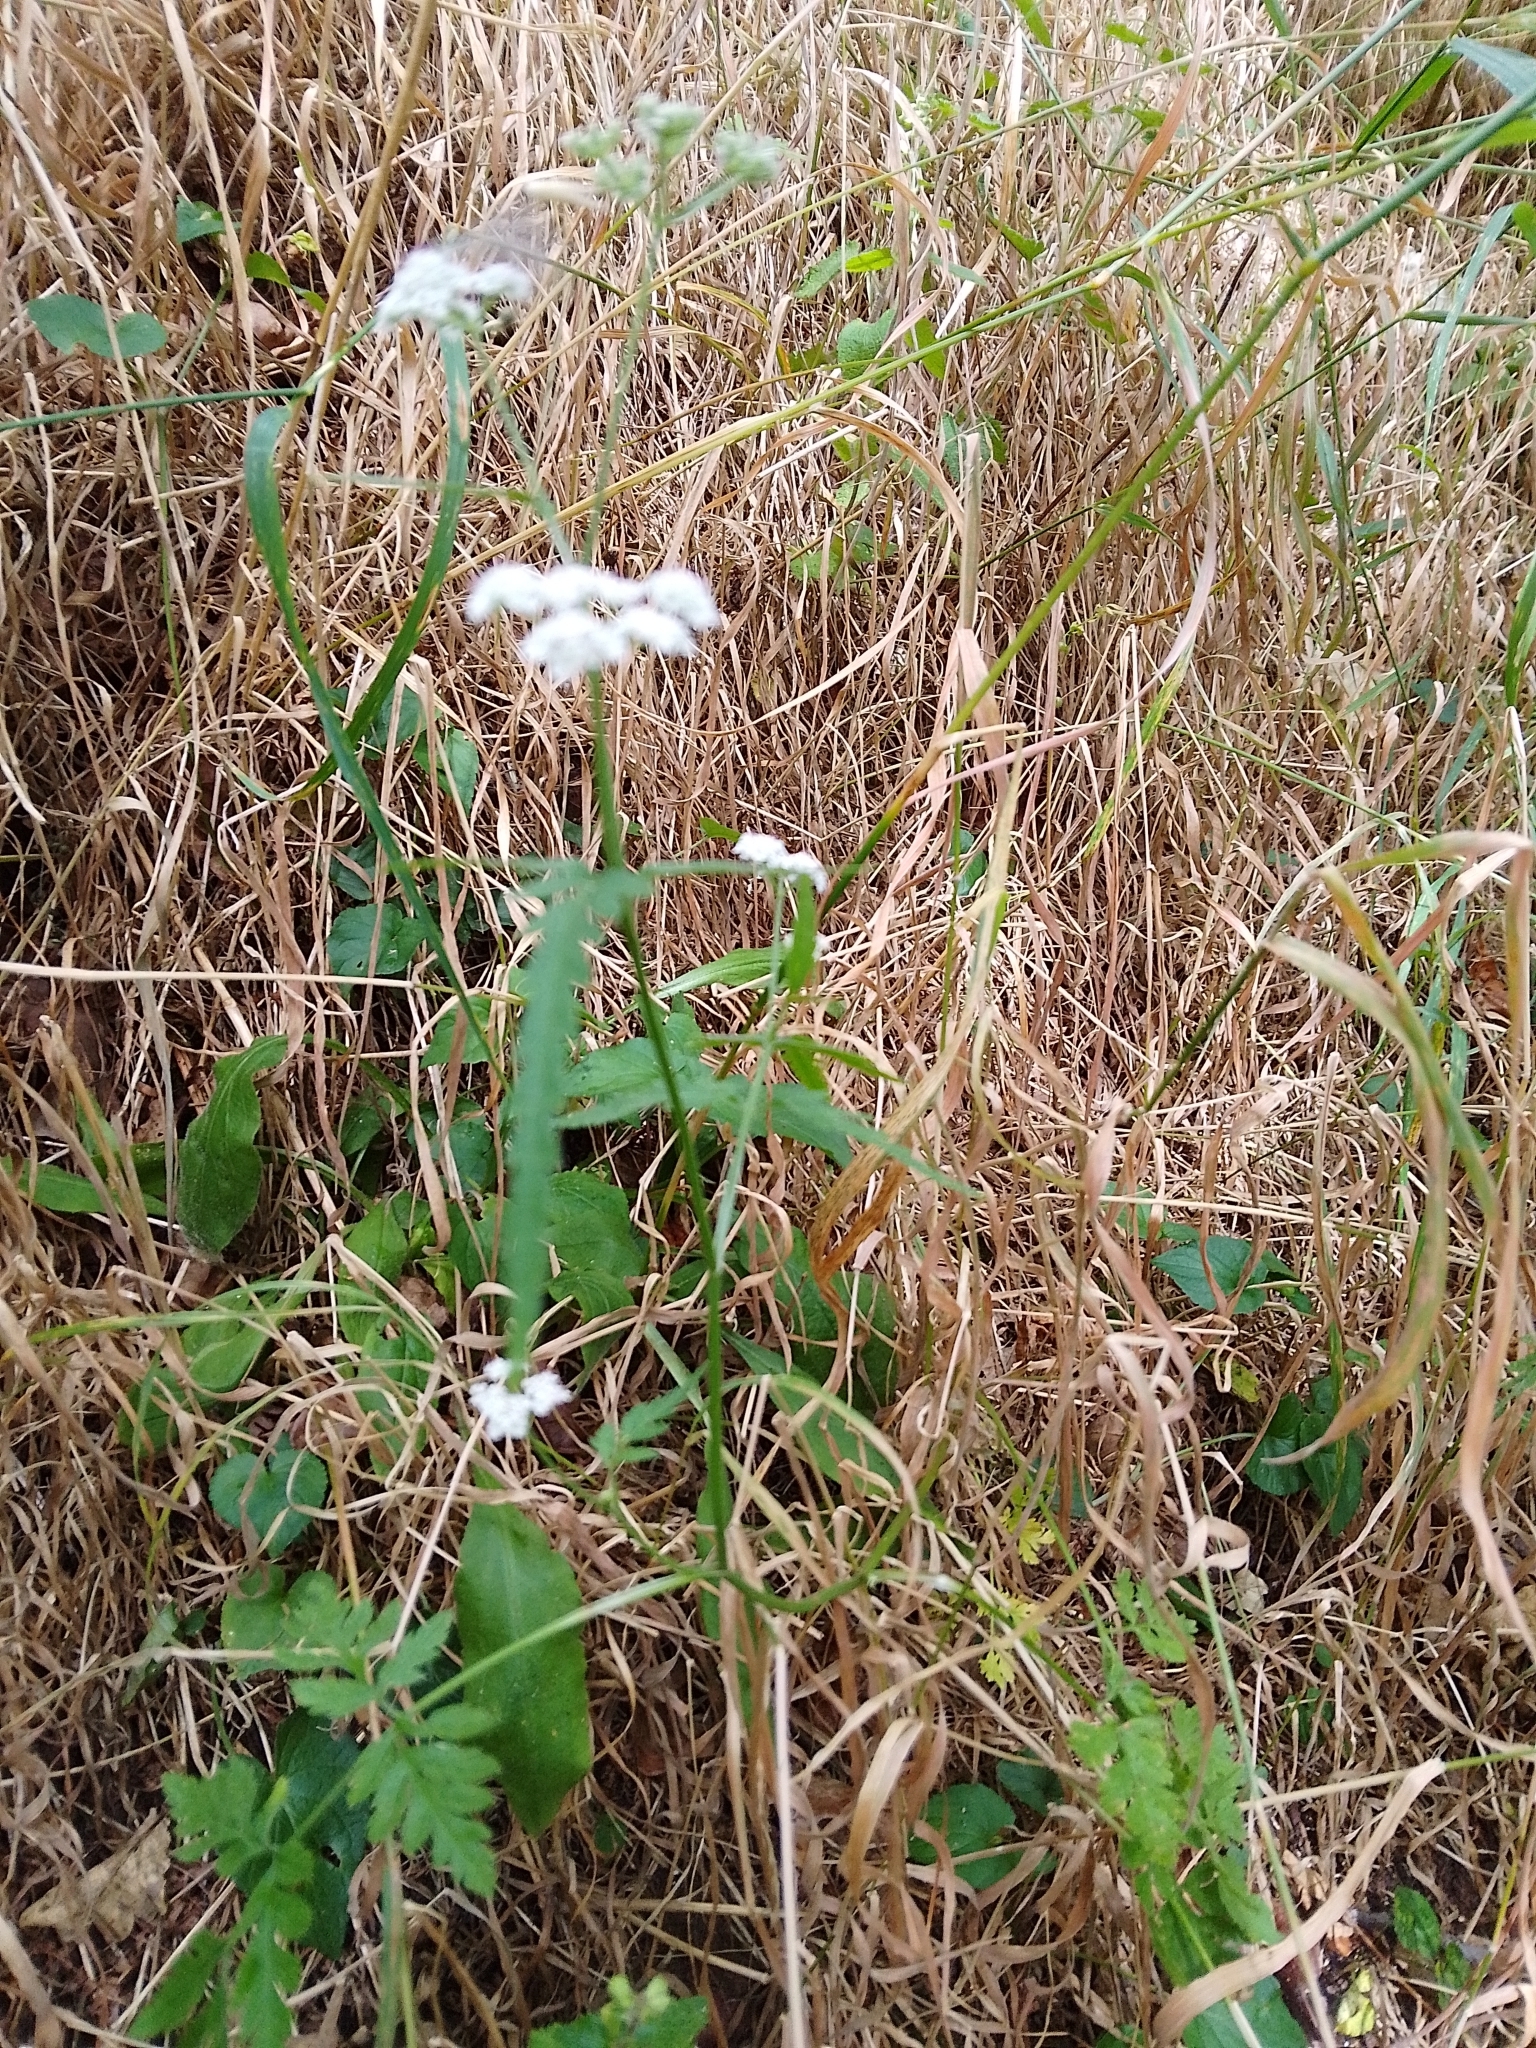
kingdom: Plantae
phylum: Tracheophyta
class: Magnoliopsida
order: Apiales
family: Apiaceae
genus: Torilis
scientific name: Torilis japonica
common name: Upright hedge-parsley
